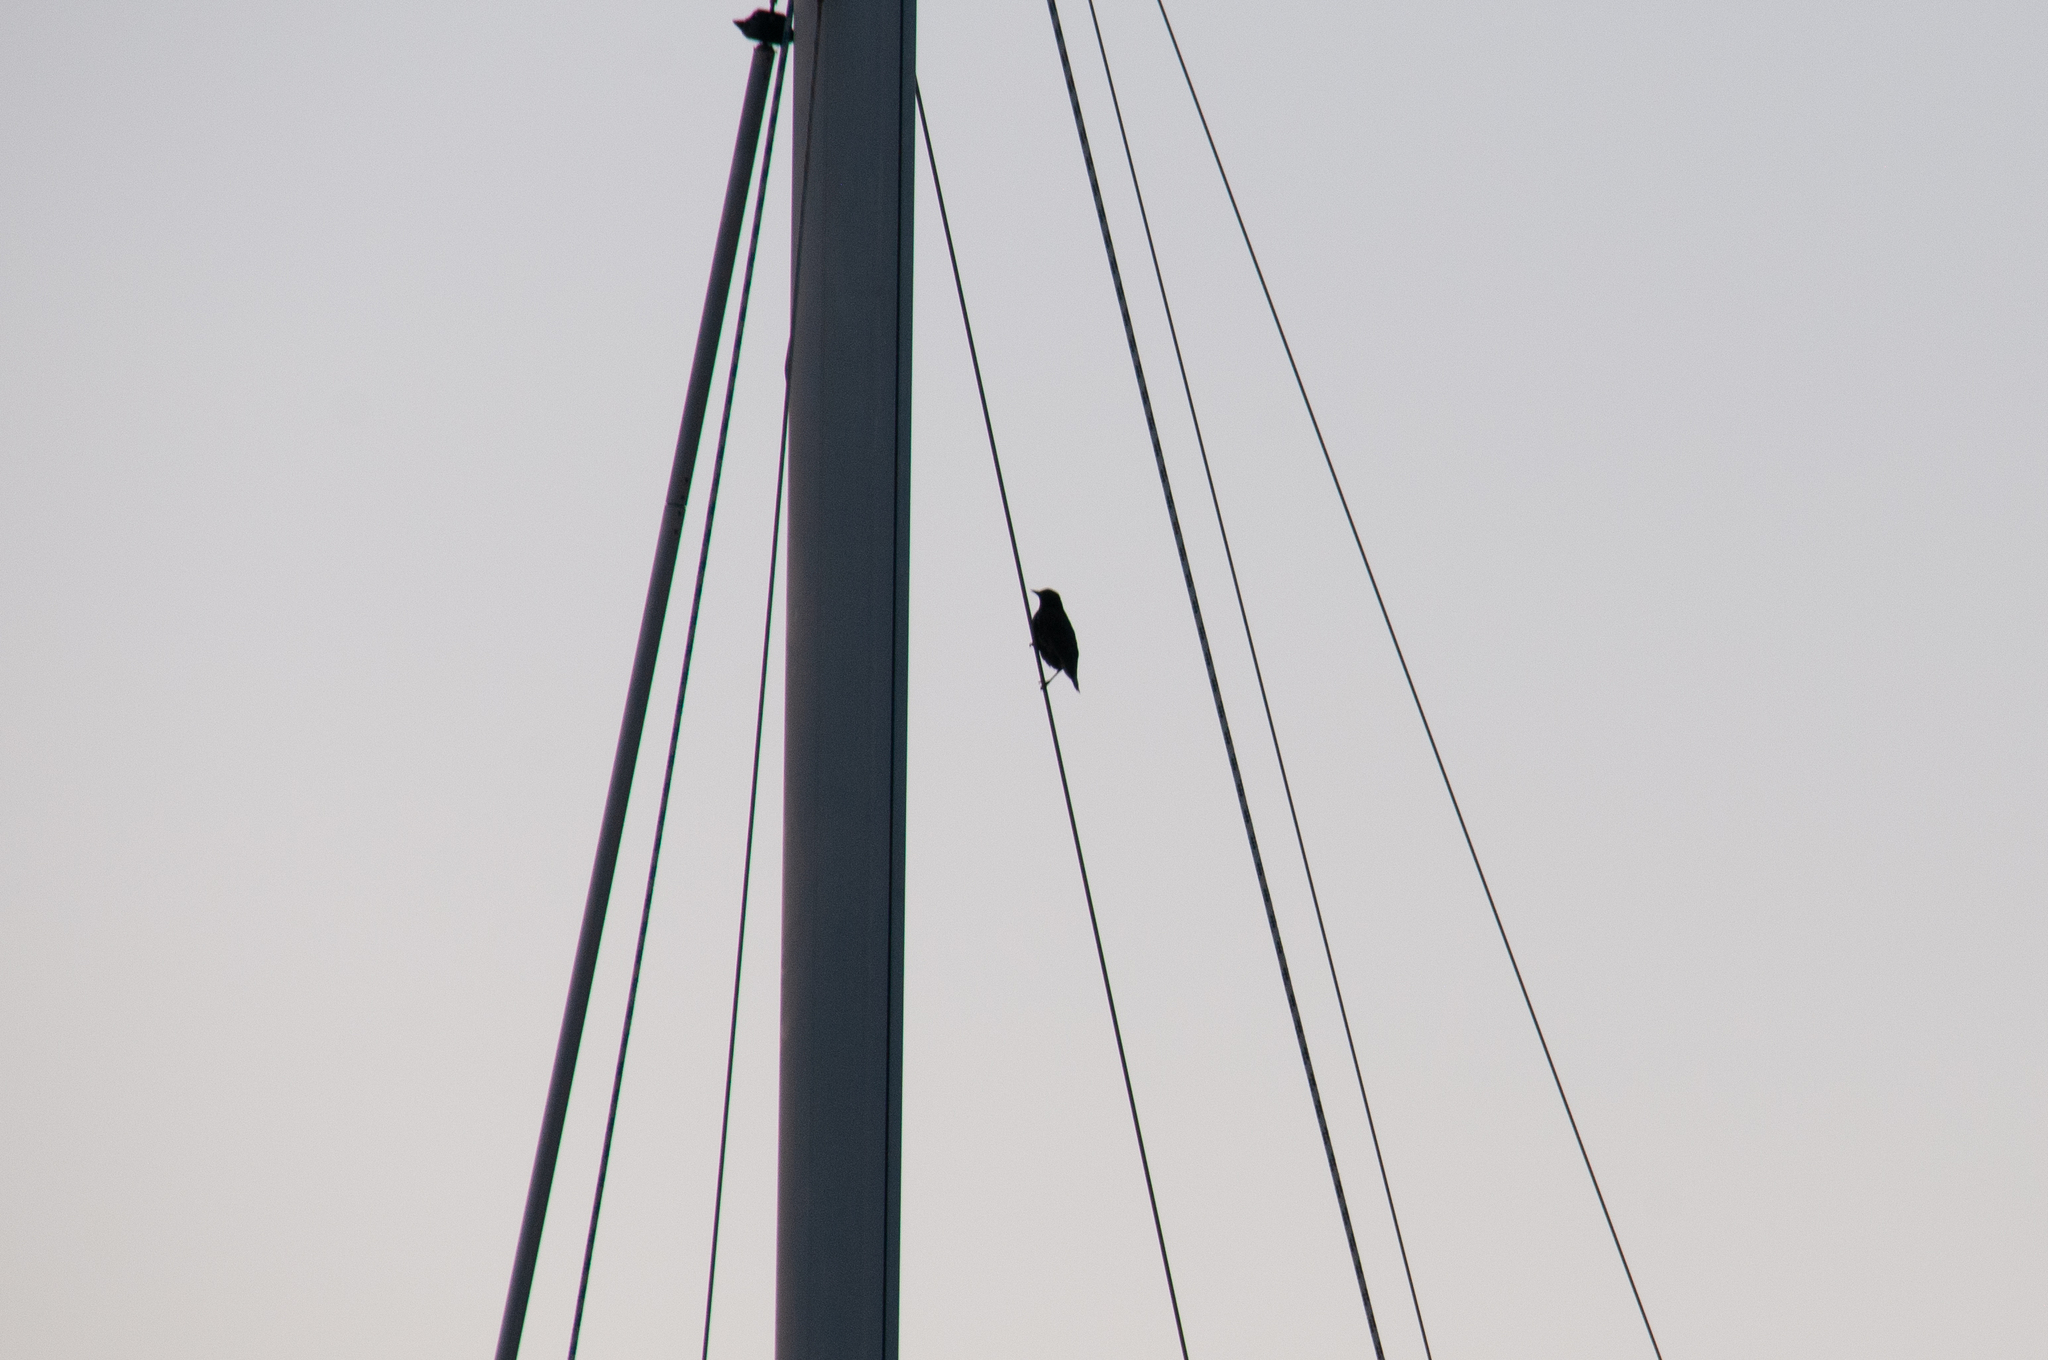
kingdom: Animalia
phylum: Chordata
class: Aves
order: Passeriformes
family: Sturnidae
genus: Sturnus
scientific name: Sturnus vulgaris
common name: Common starling
